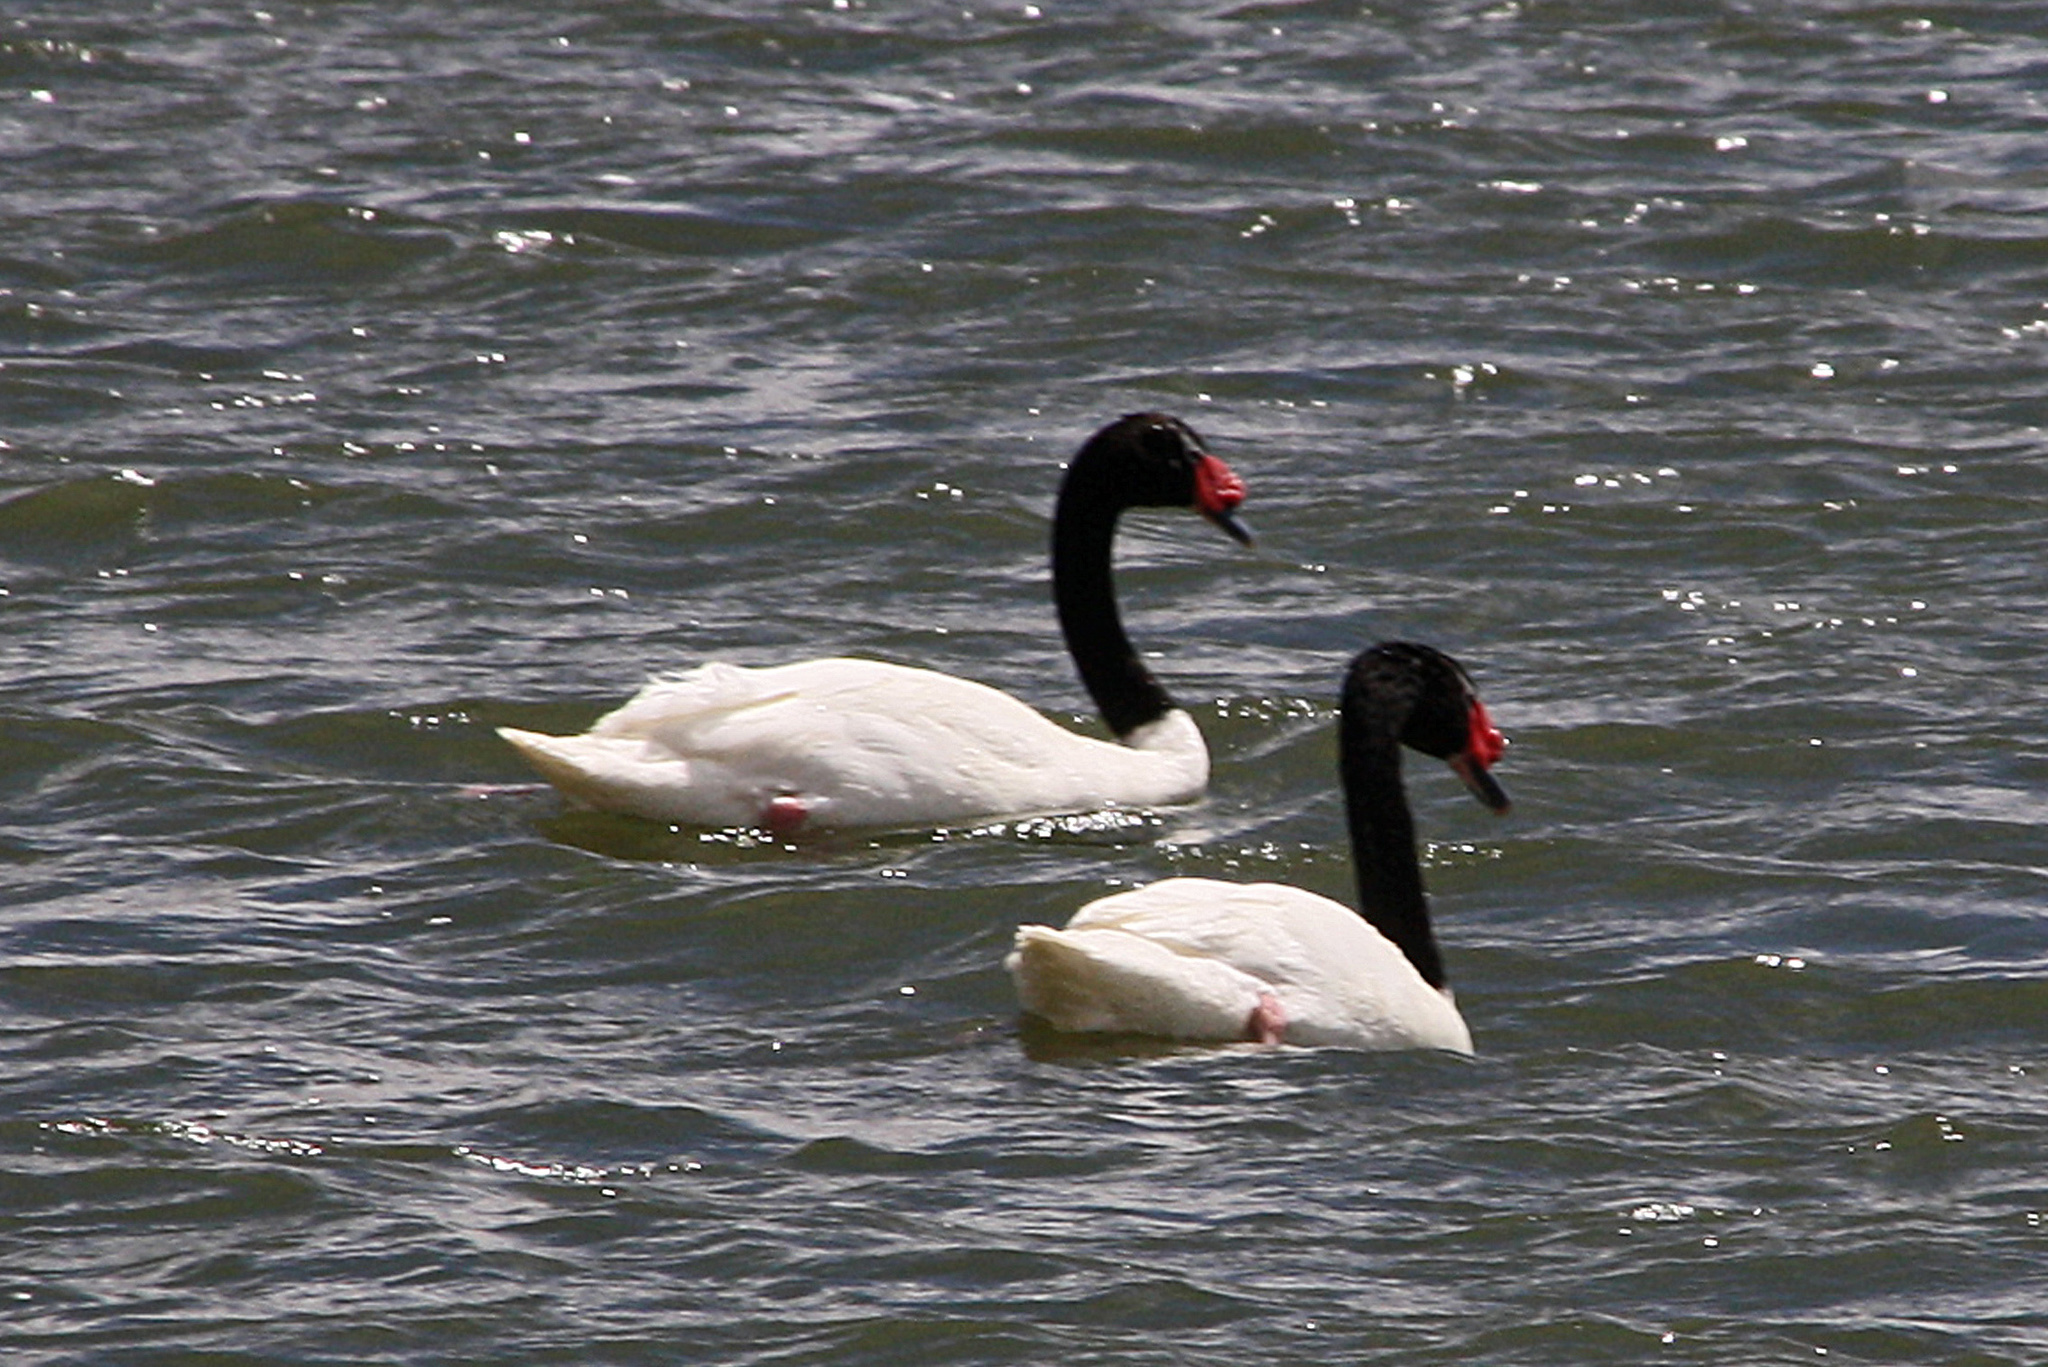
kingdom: Animalia
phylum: Chordata
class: Aves
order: Anseriformes
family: Anatidae
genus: Cygnus
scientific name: Cygnus melancoryphus
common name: Black-necked swan
